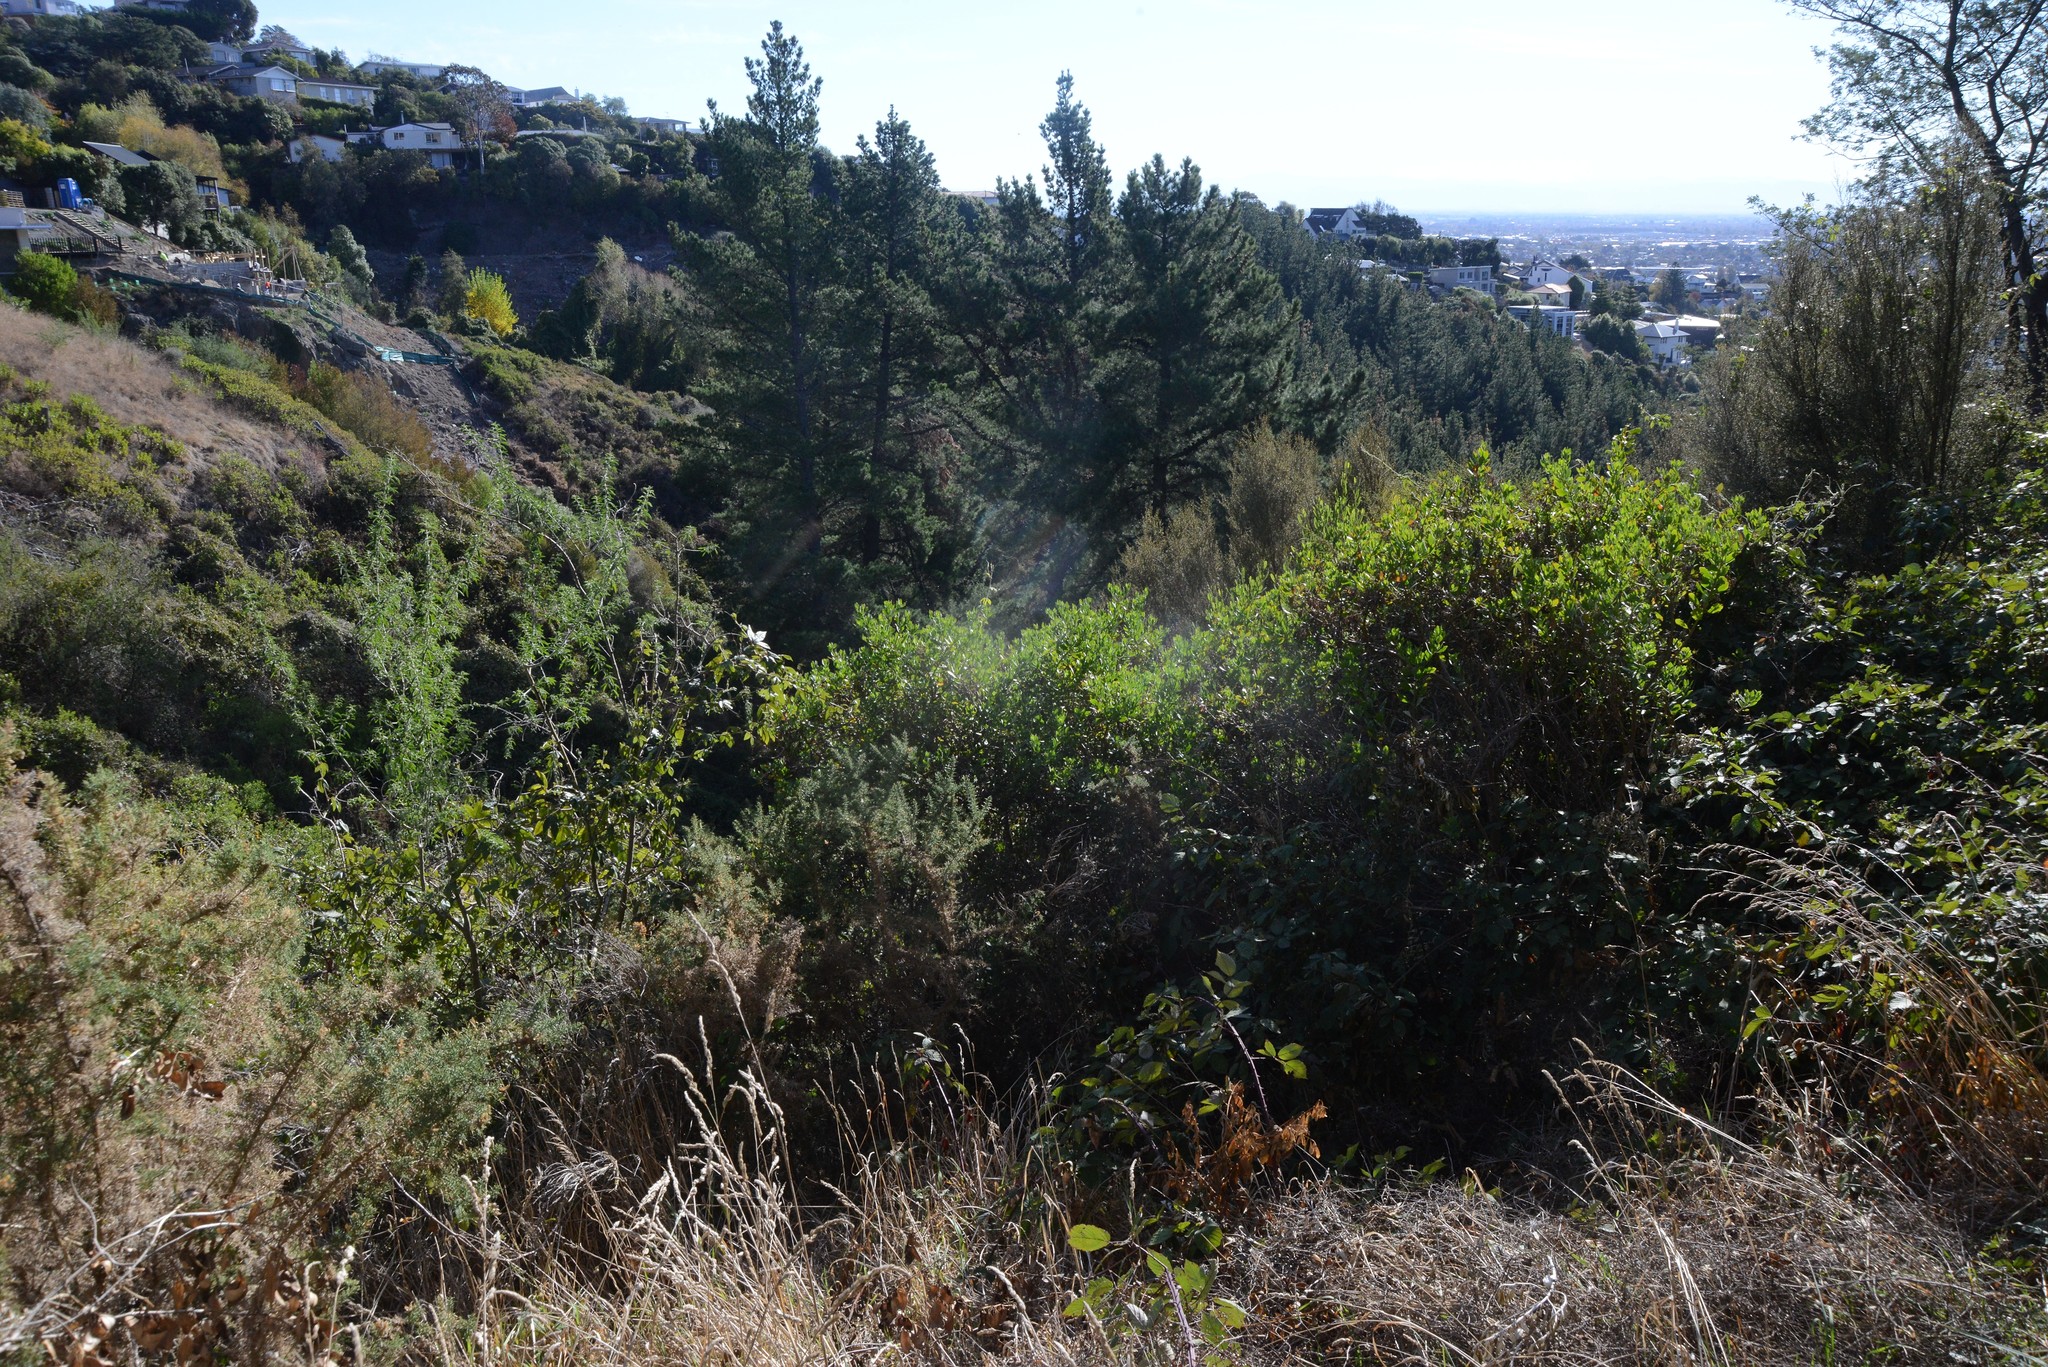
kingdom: Plantae
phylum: Tracheophyta
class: Magnoliopsida
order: Asterales
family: Asteraceae
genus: Osteospermum
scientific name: Osteospermum moniliferum
